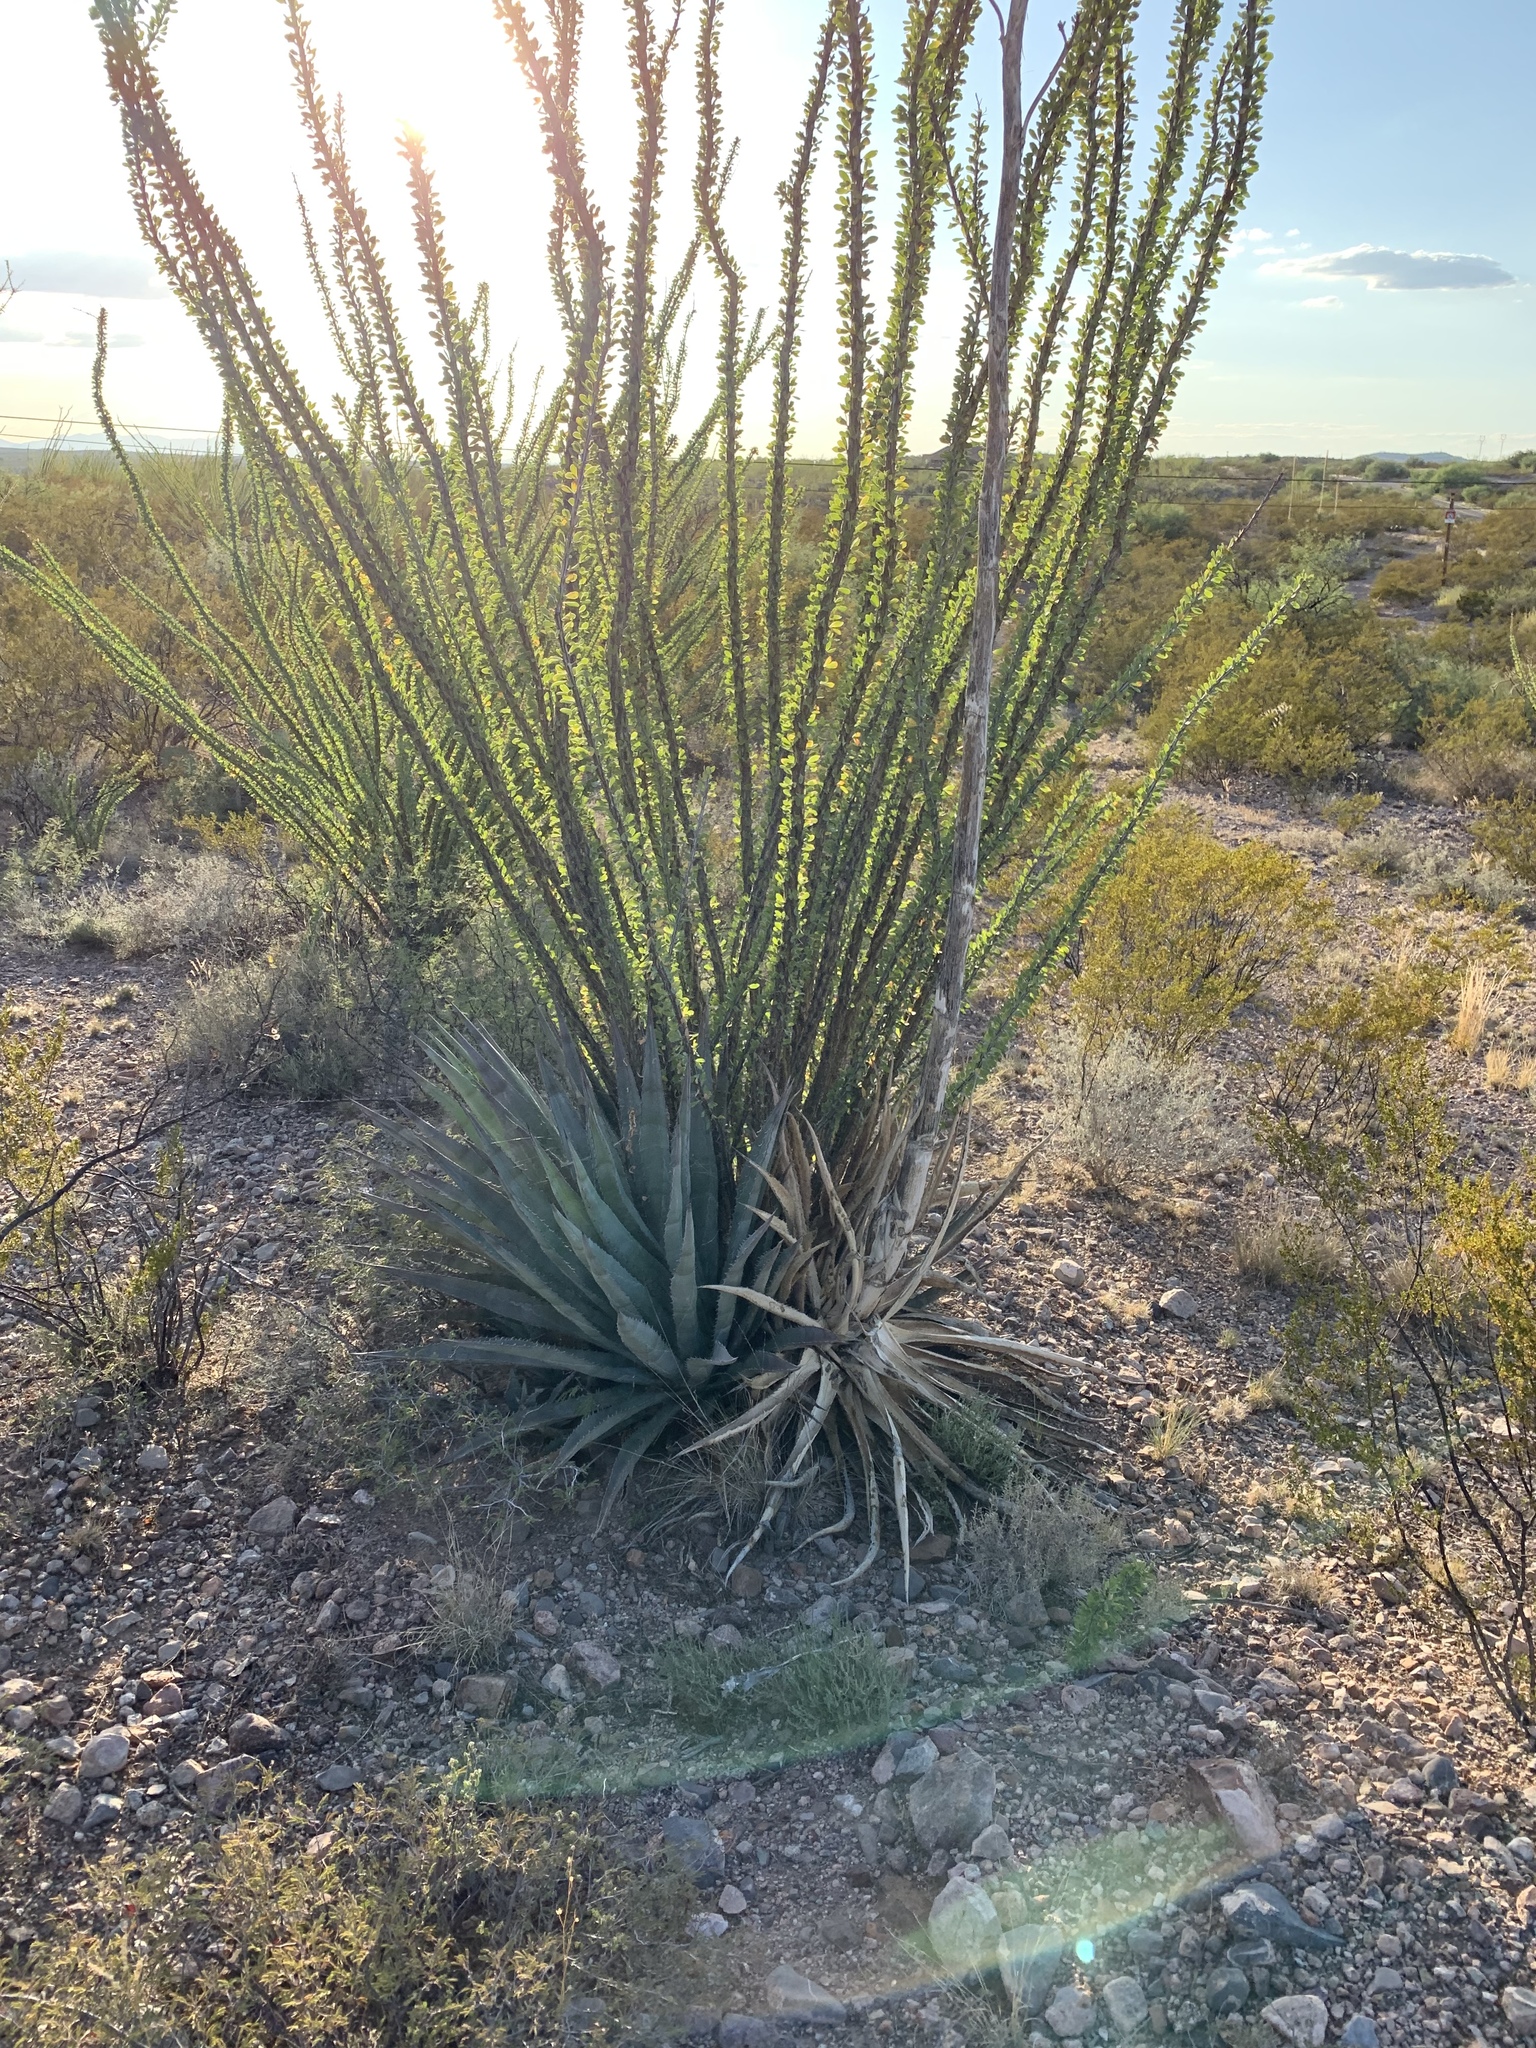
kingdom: Plantae
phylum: Tracheophyta
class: Liliopsida
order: Asparagales
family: Asparagaceae
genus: Agave
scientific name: Agave palmeri
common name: Palmer agave
